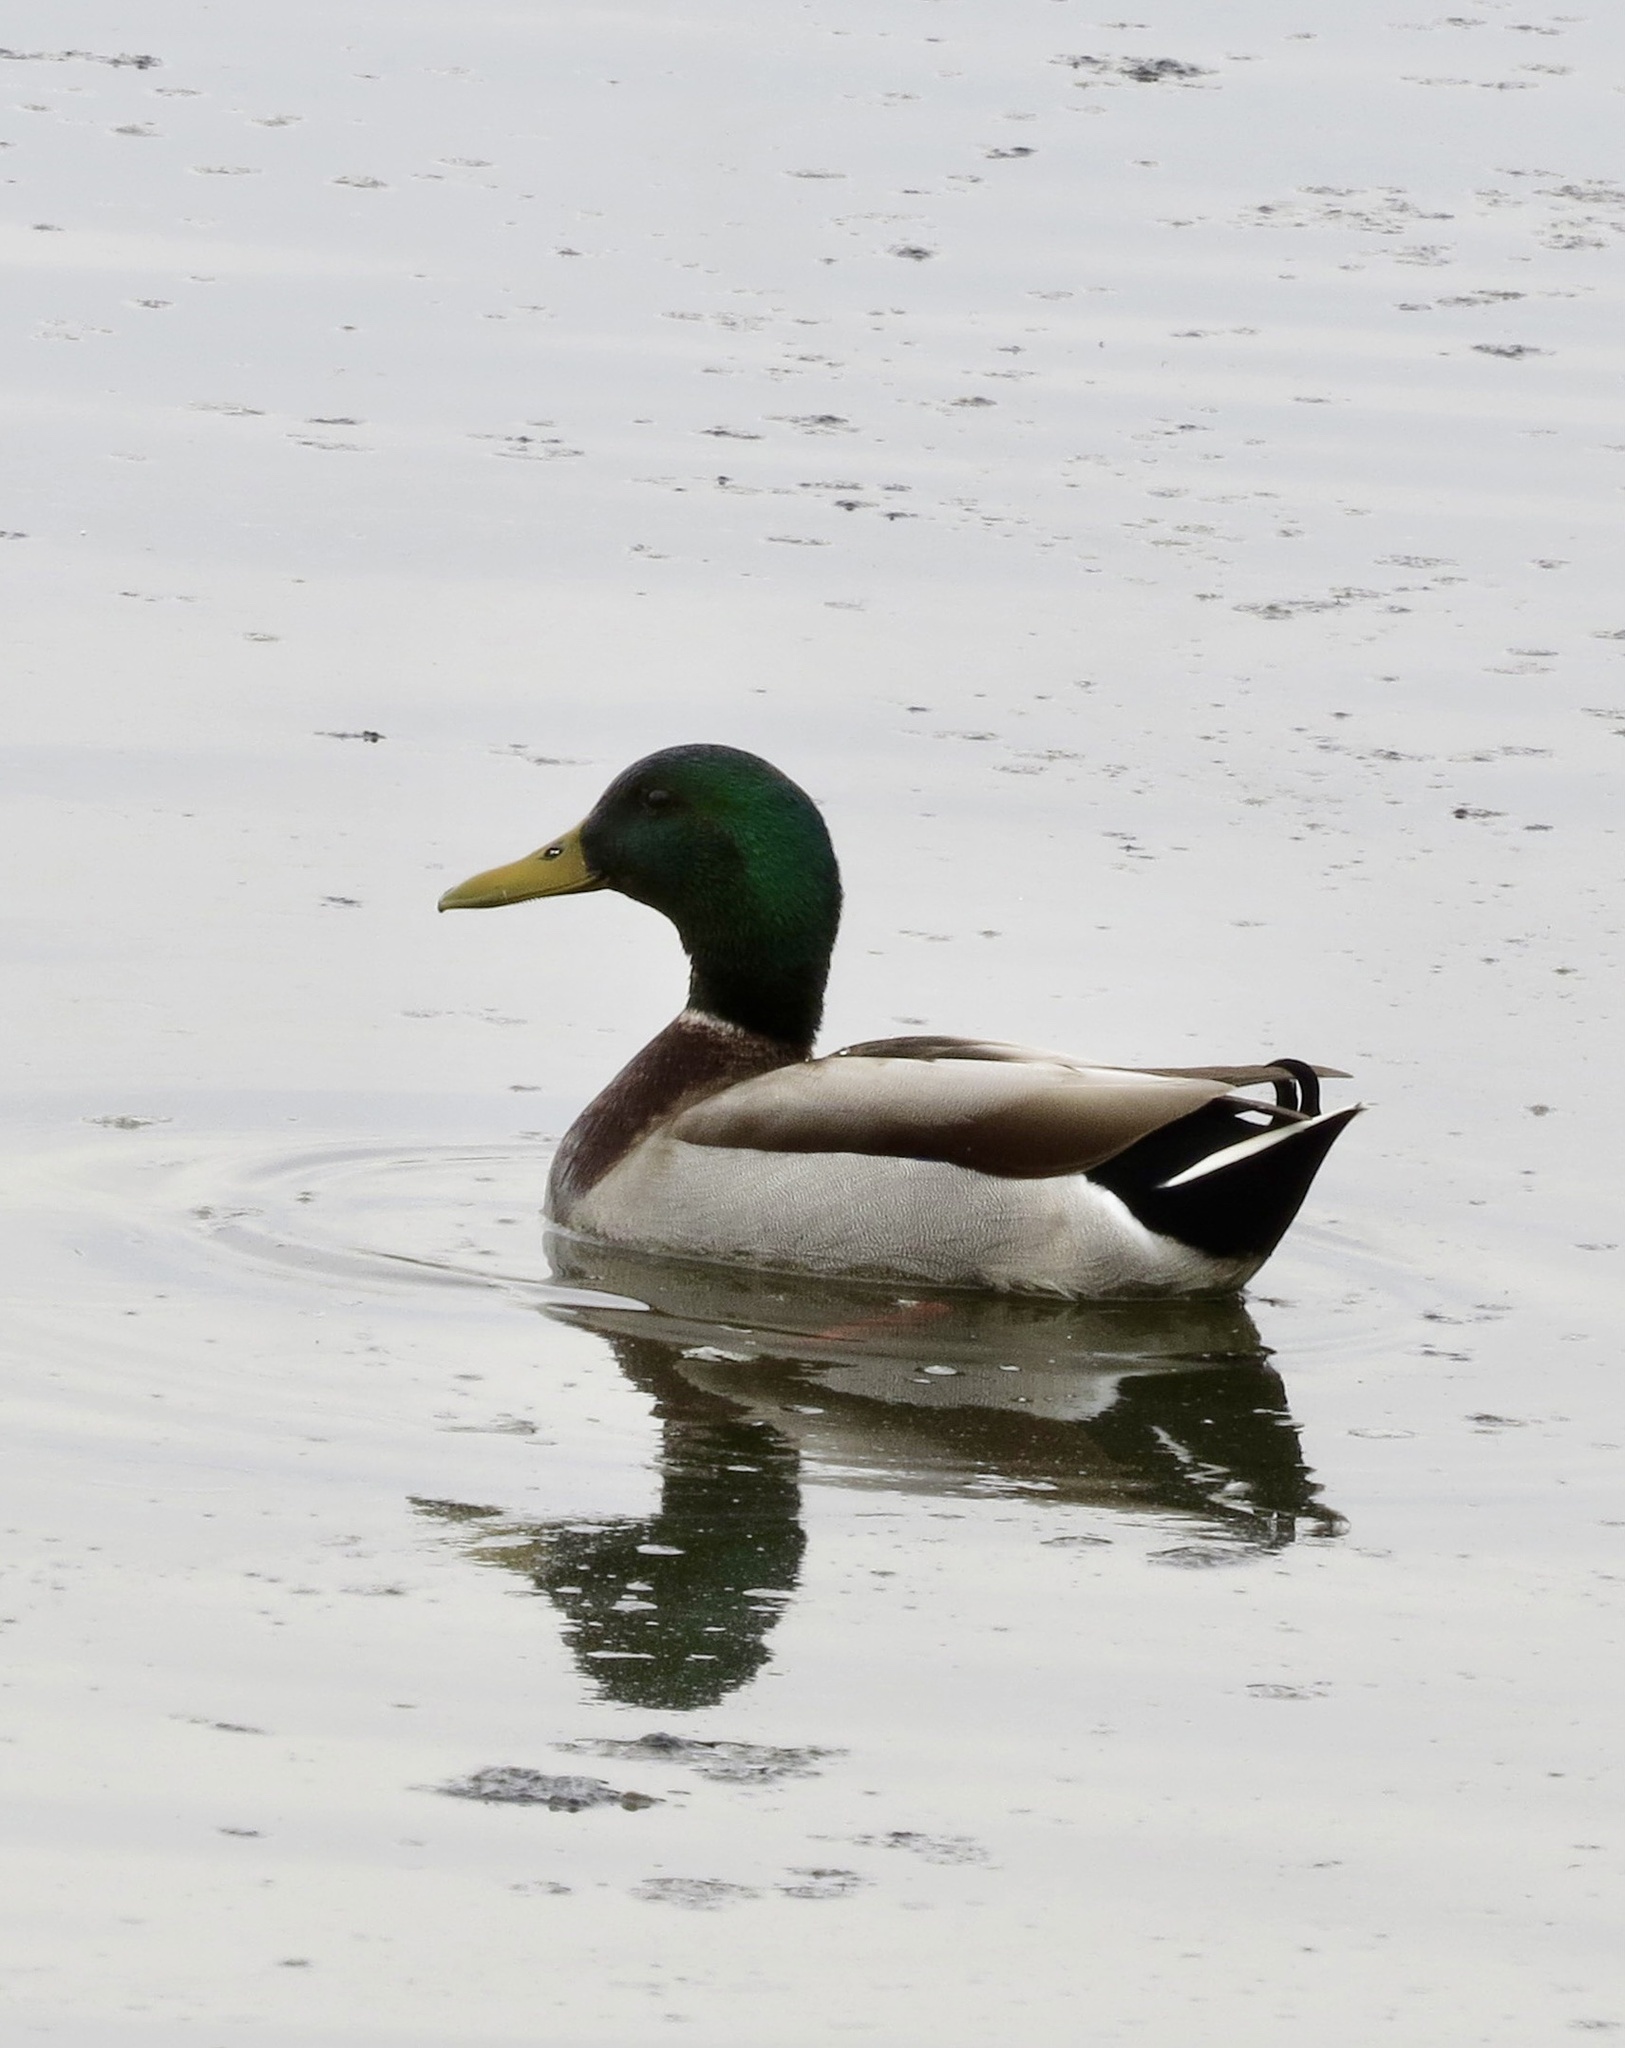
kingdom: Animalia
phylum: Chordata
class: Aves
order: Anseriformes
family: Anatidae
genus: Anas
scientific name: Anas platyrhynchos
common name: Mallard
